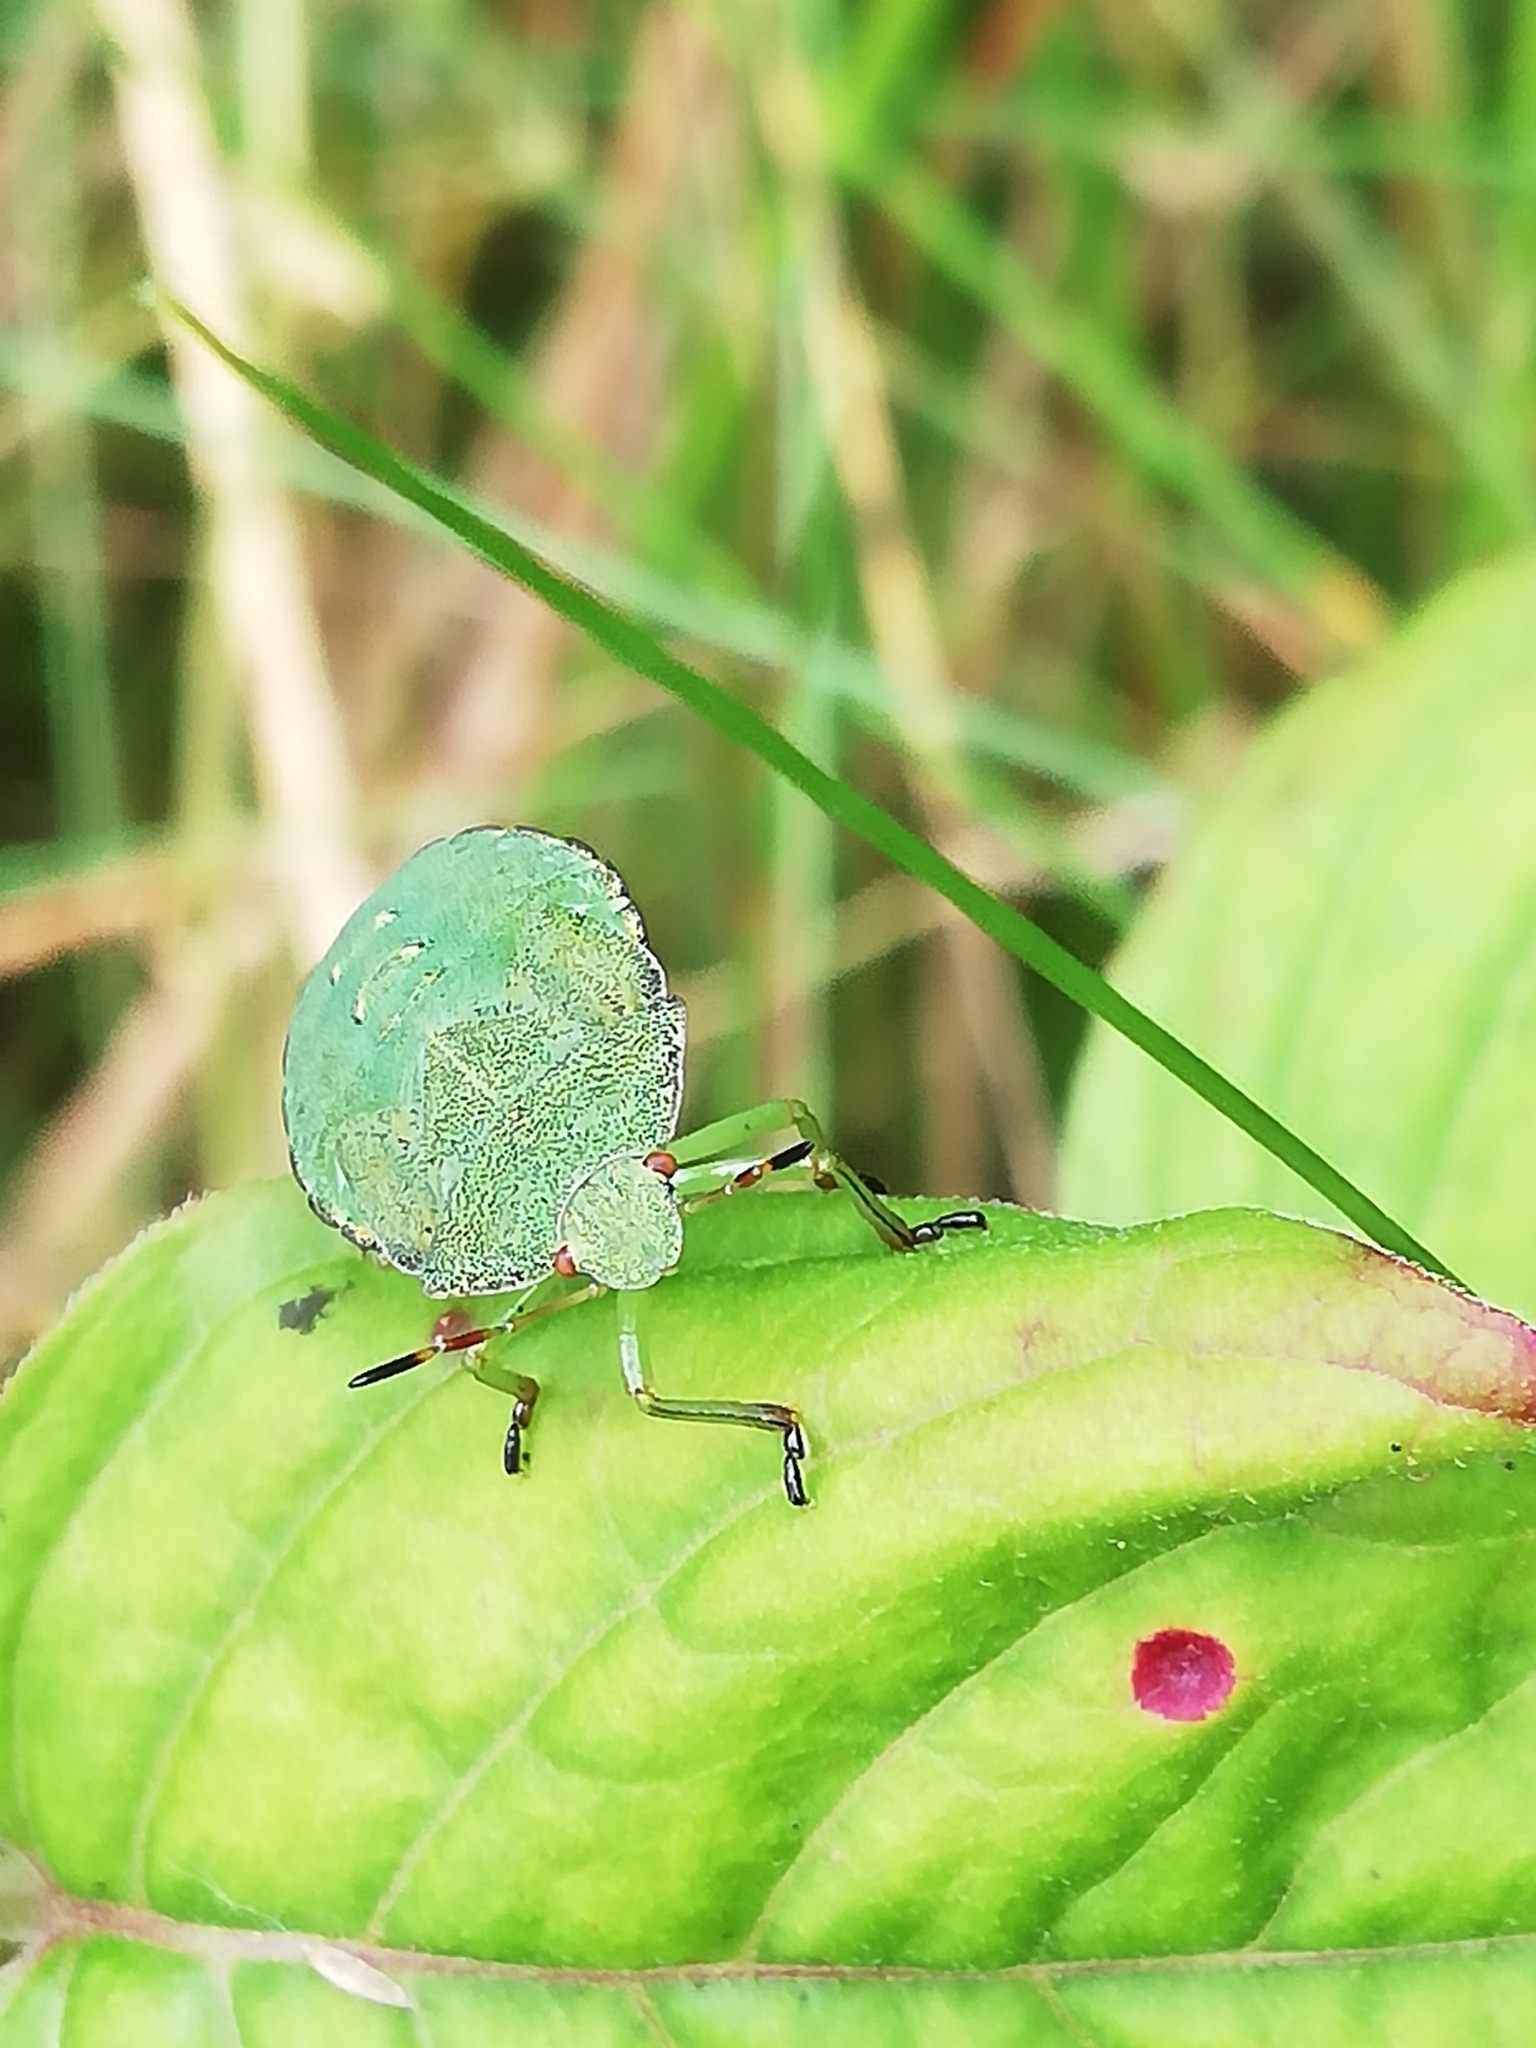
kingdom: Animalia
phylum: Arthropoda
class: Insecta
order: Hemiptera
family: Pentatomidae
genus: Palomena
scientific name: Palomena prasina
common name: Green shieldbug
